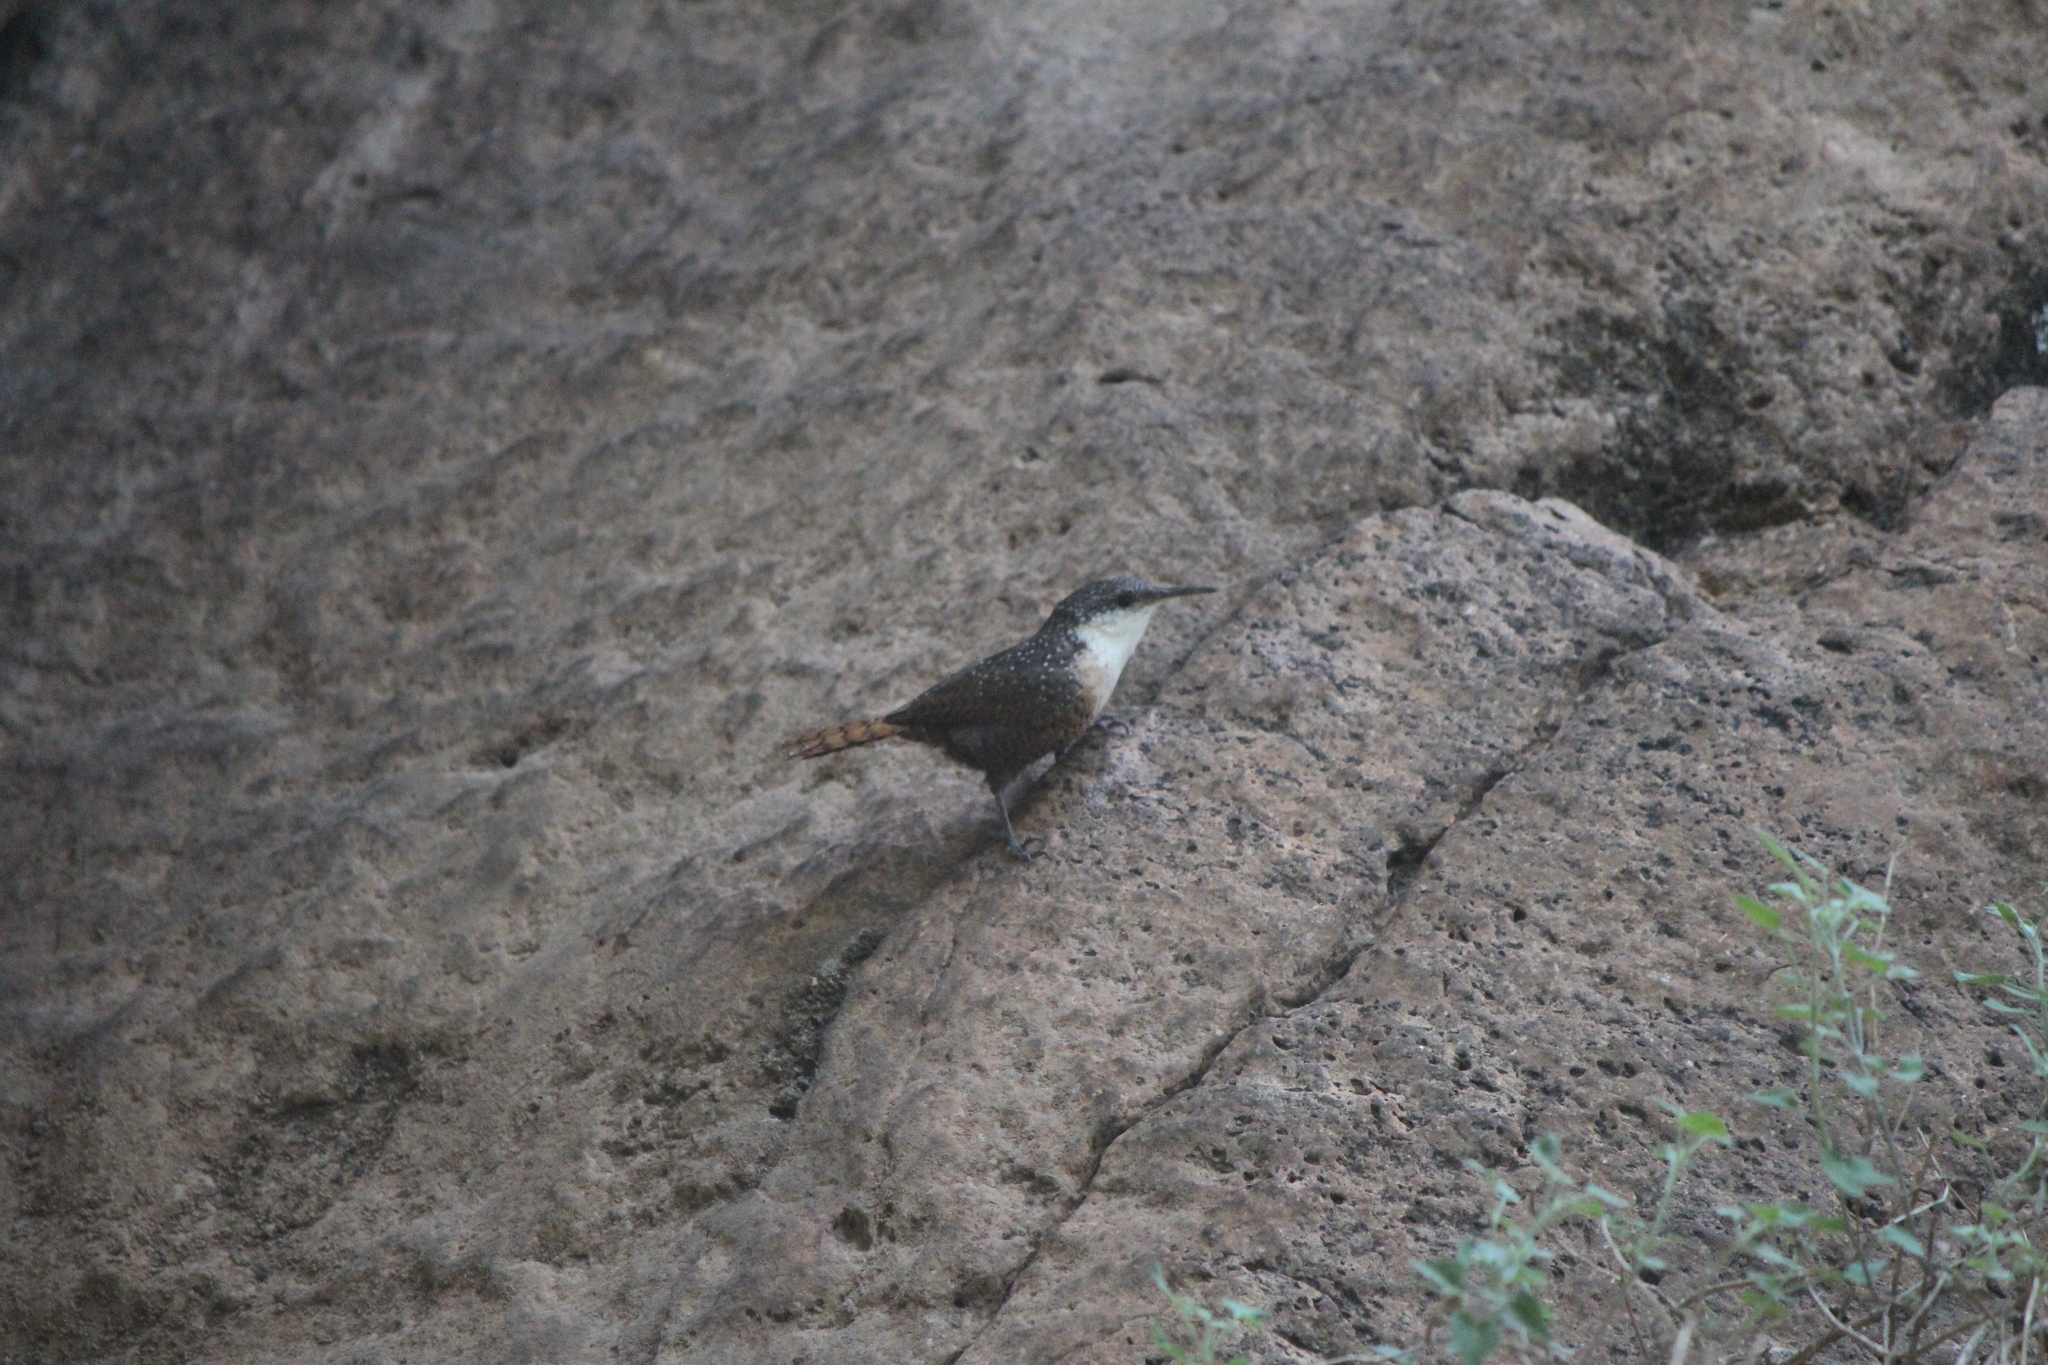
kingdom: Animalia
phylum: Chordata
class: Aves
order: Passeriformes
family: Troglodytidae
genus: Catherpes
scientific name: Catherpes mexicanus
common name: Canyon wren
